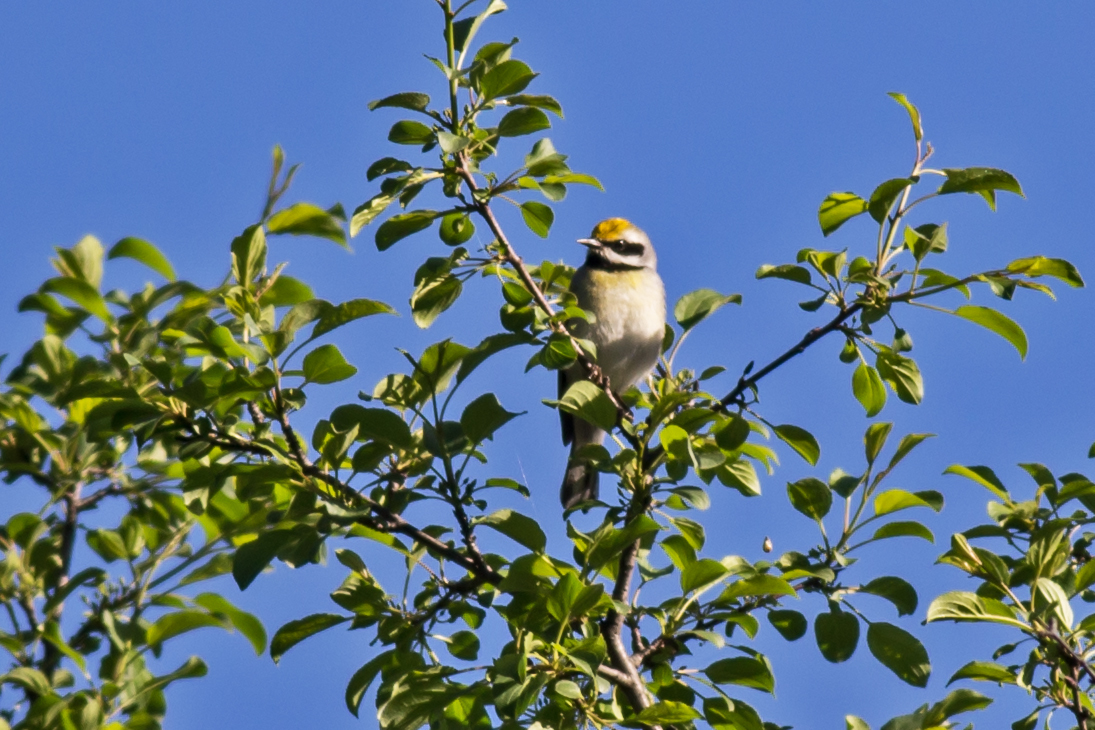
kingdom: Animalia
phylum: Chordata
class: Aves
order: Passeriformes
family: Parulidae
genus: Vermivora
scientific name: Vermivora chrysoptera
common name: Golden-winged warbler
